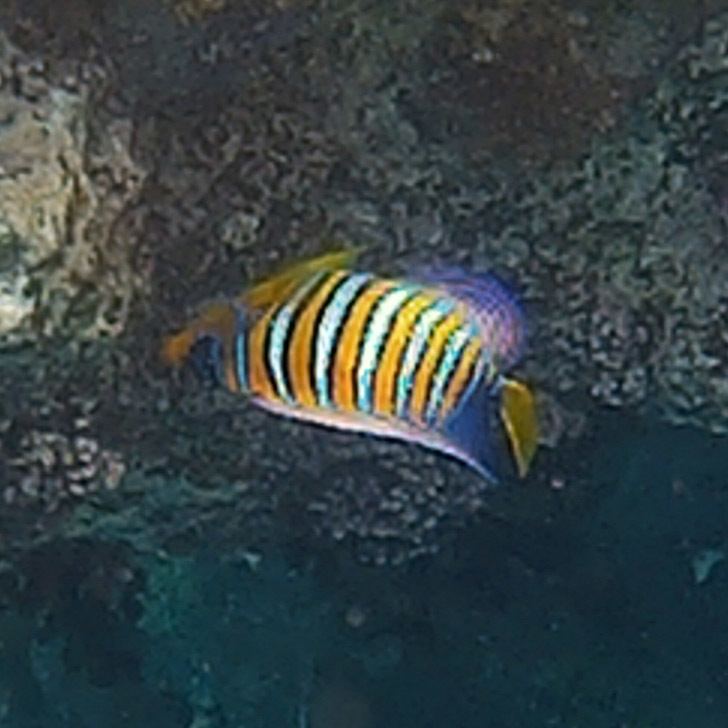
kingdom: Animalia
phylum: Chordata
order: Perciformes
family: Pomacanthidae
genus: Pygoplites
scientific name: Pygoplites diacanthus
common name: Regal angelfish
